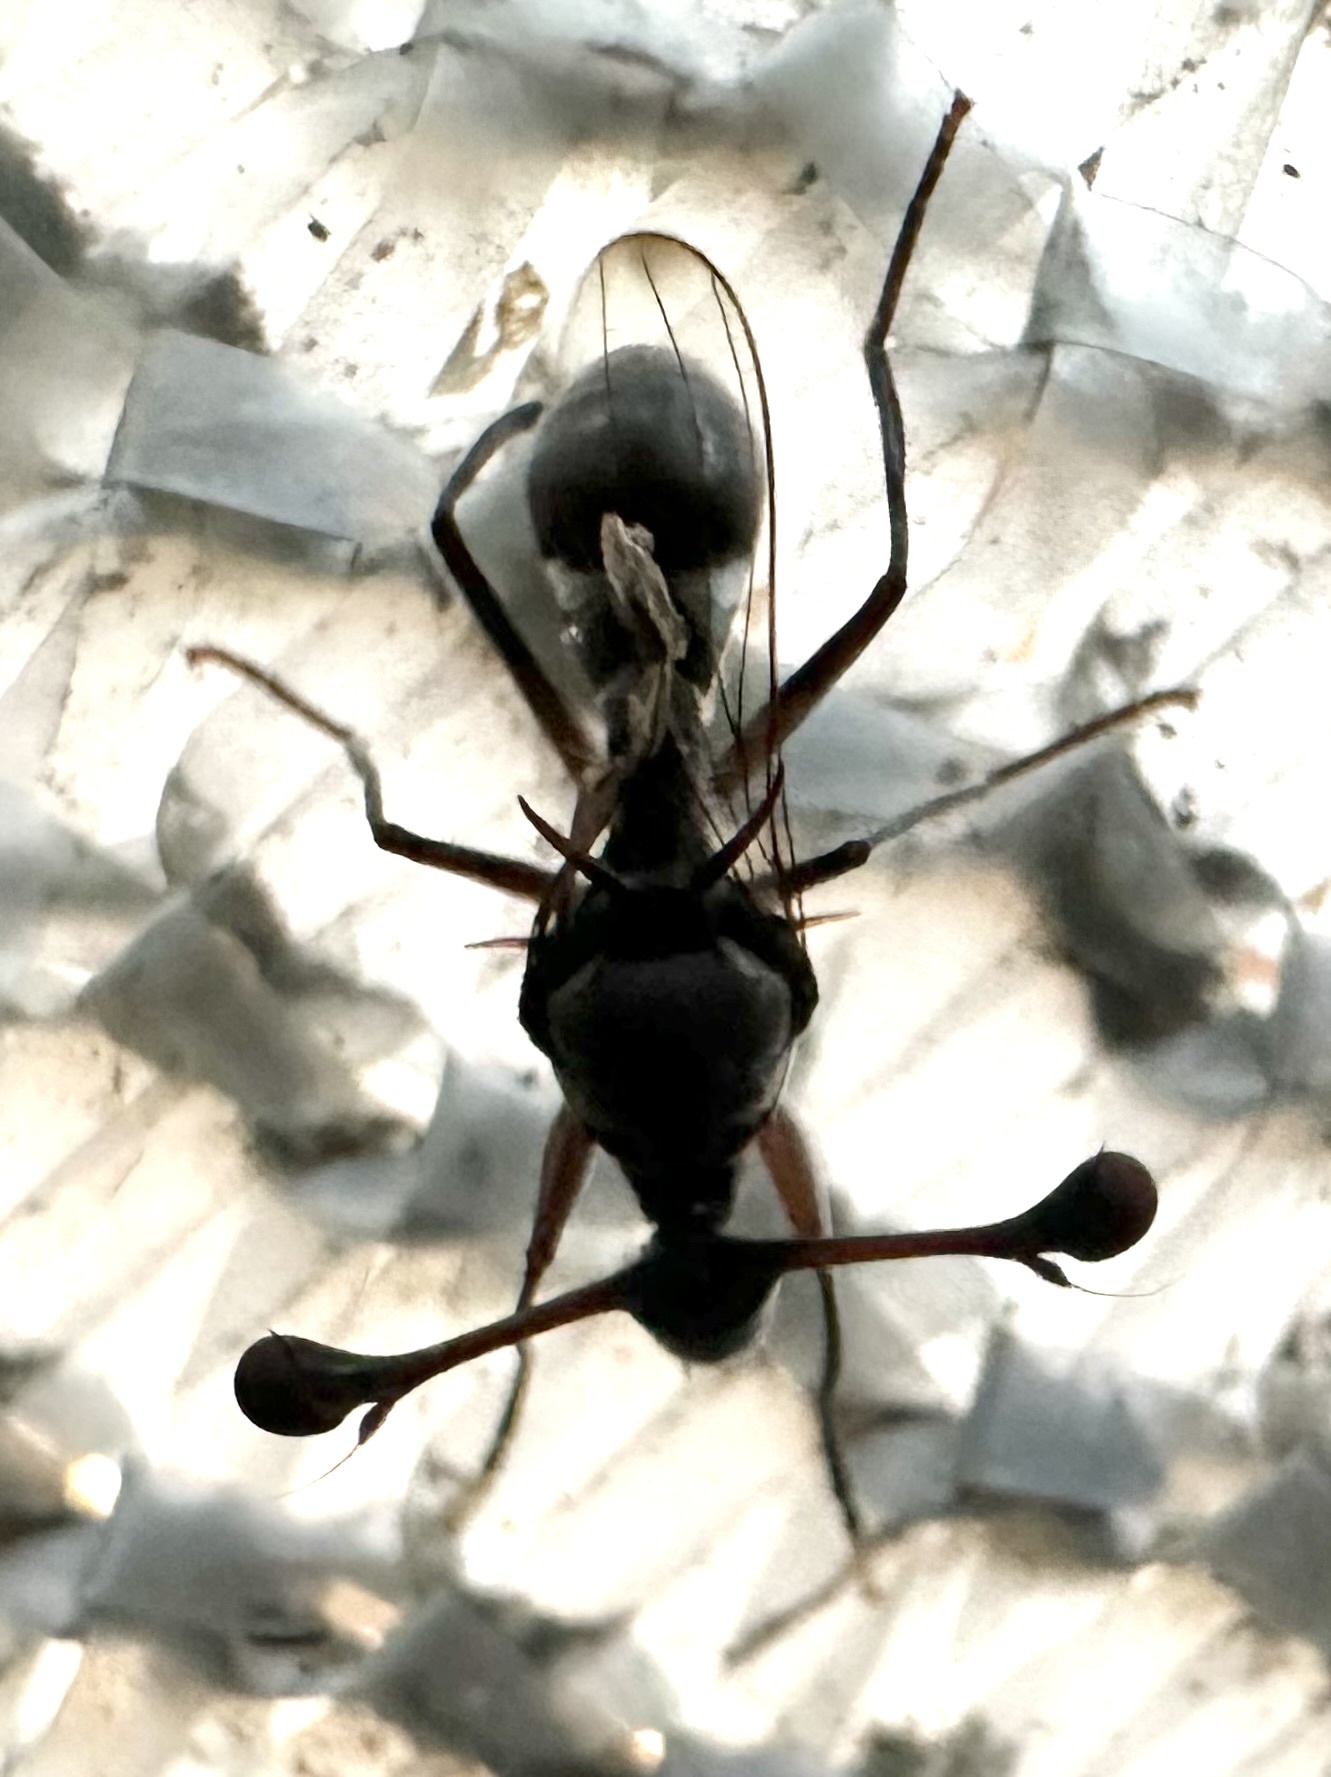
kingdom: Animalia
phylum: Arthropoda
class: Insecta
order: Diptera
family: Diopsidae
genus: Chaetodiopsis
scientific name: Chaetodiopsis
